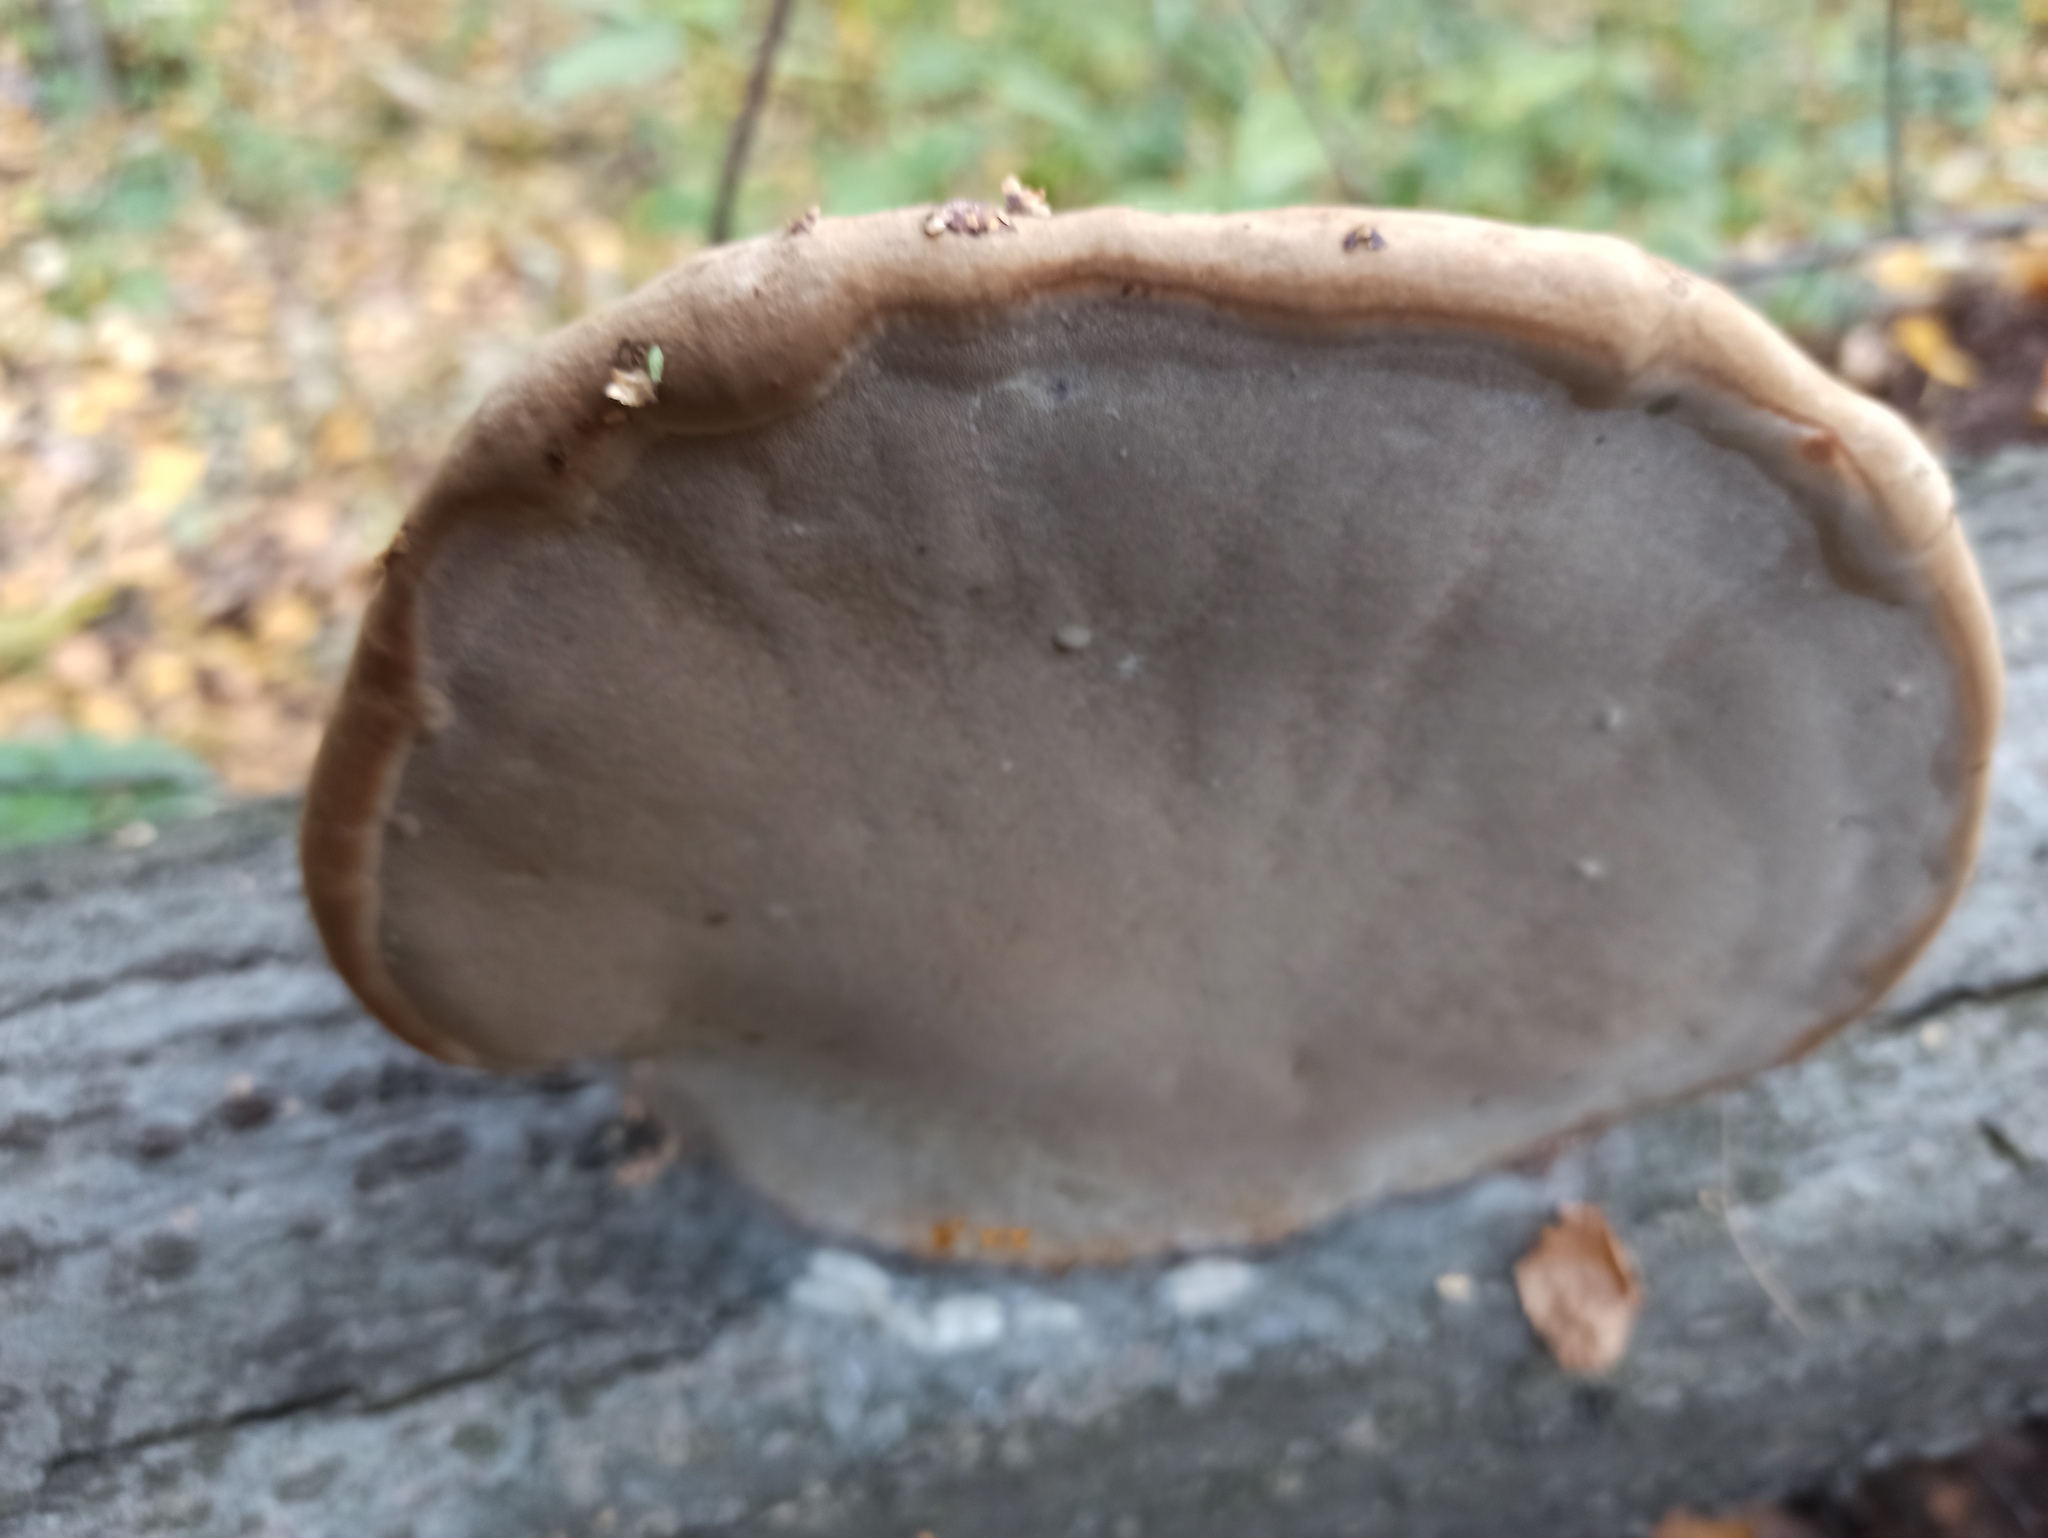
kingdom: Fungi
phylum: Basidiomycota
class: Agaricomycetes
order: Polyporales
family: Polyporaceae
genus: Fomes
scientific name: Fomes fomentarius
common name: Hoof fungus
